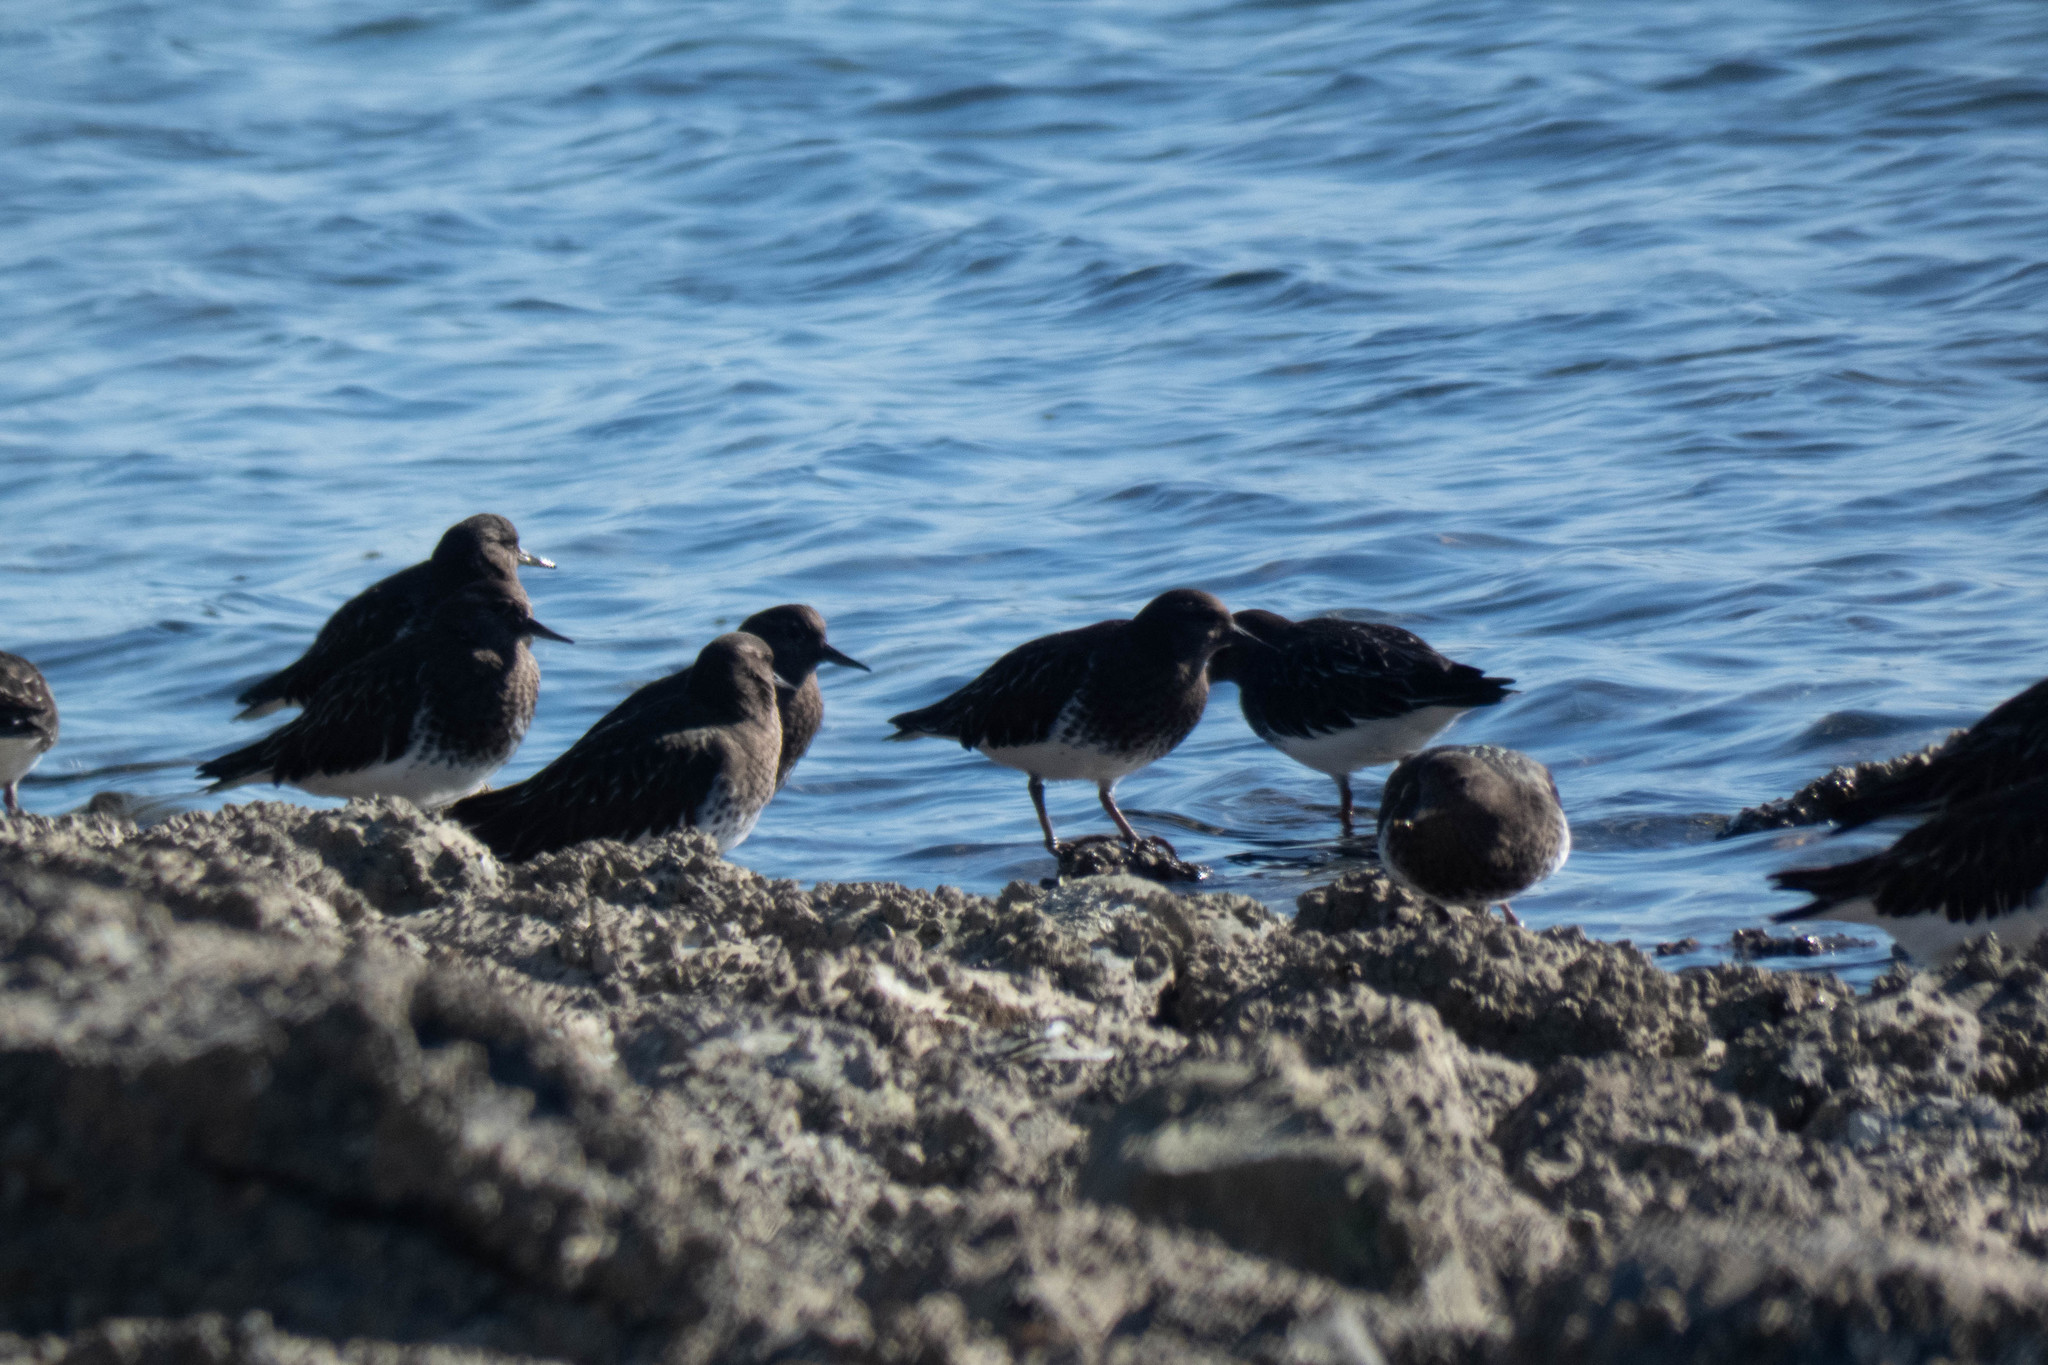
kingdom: Animalia
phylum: Chordata
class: Aves
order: Charadriiformes
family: Scolopacidae
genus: Arenaria
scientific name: Arenaria melanocephala
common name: Black turnstone
